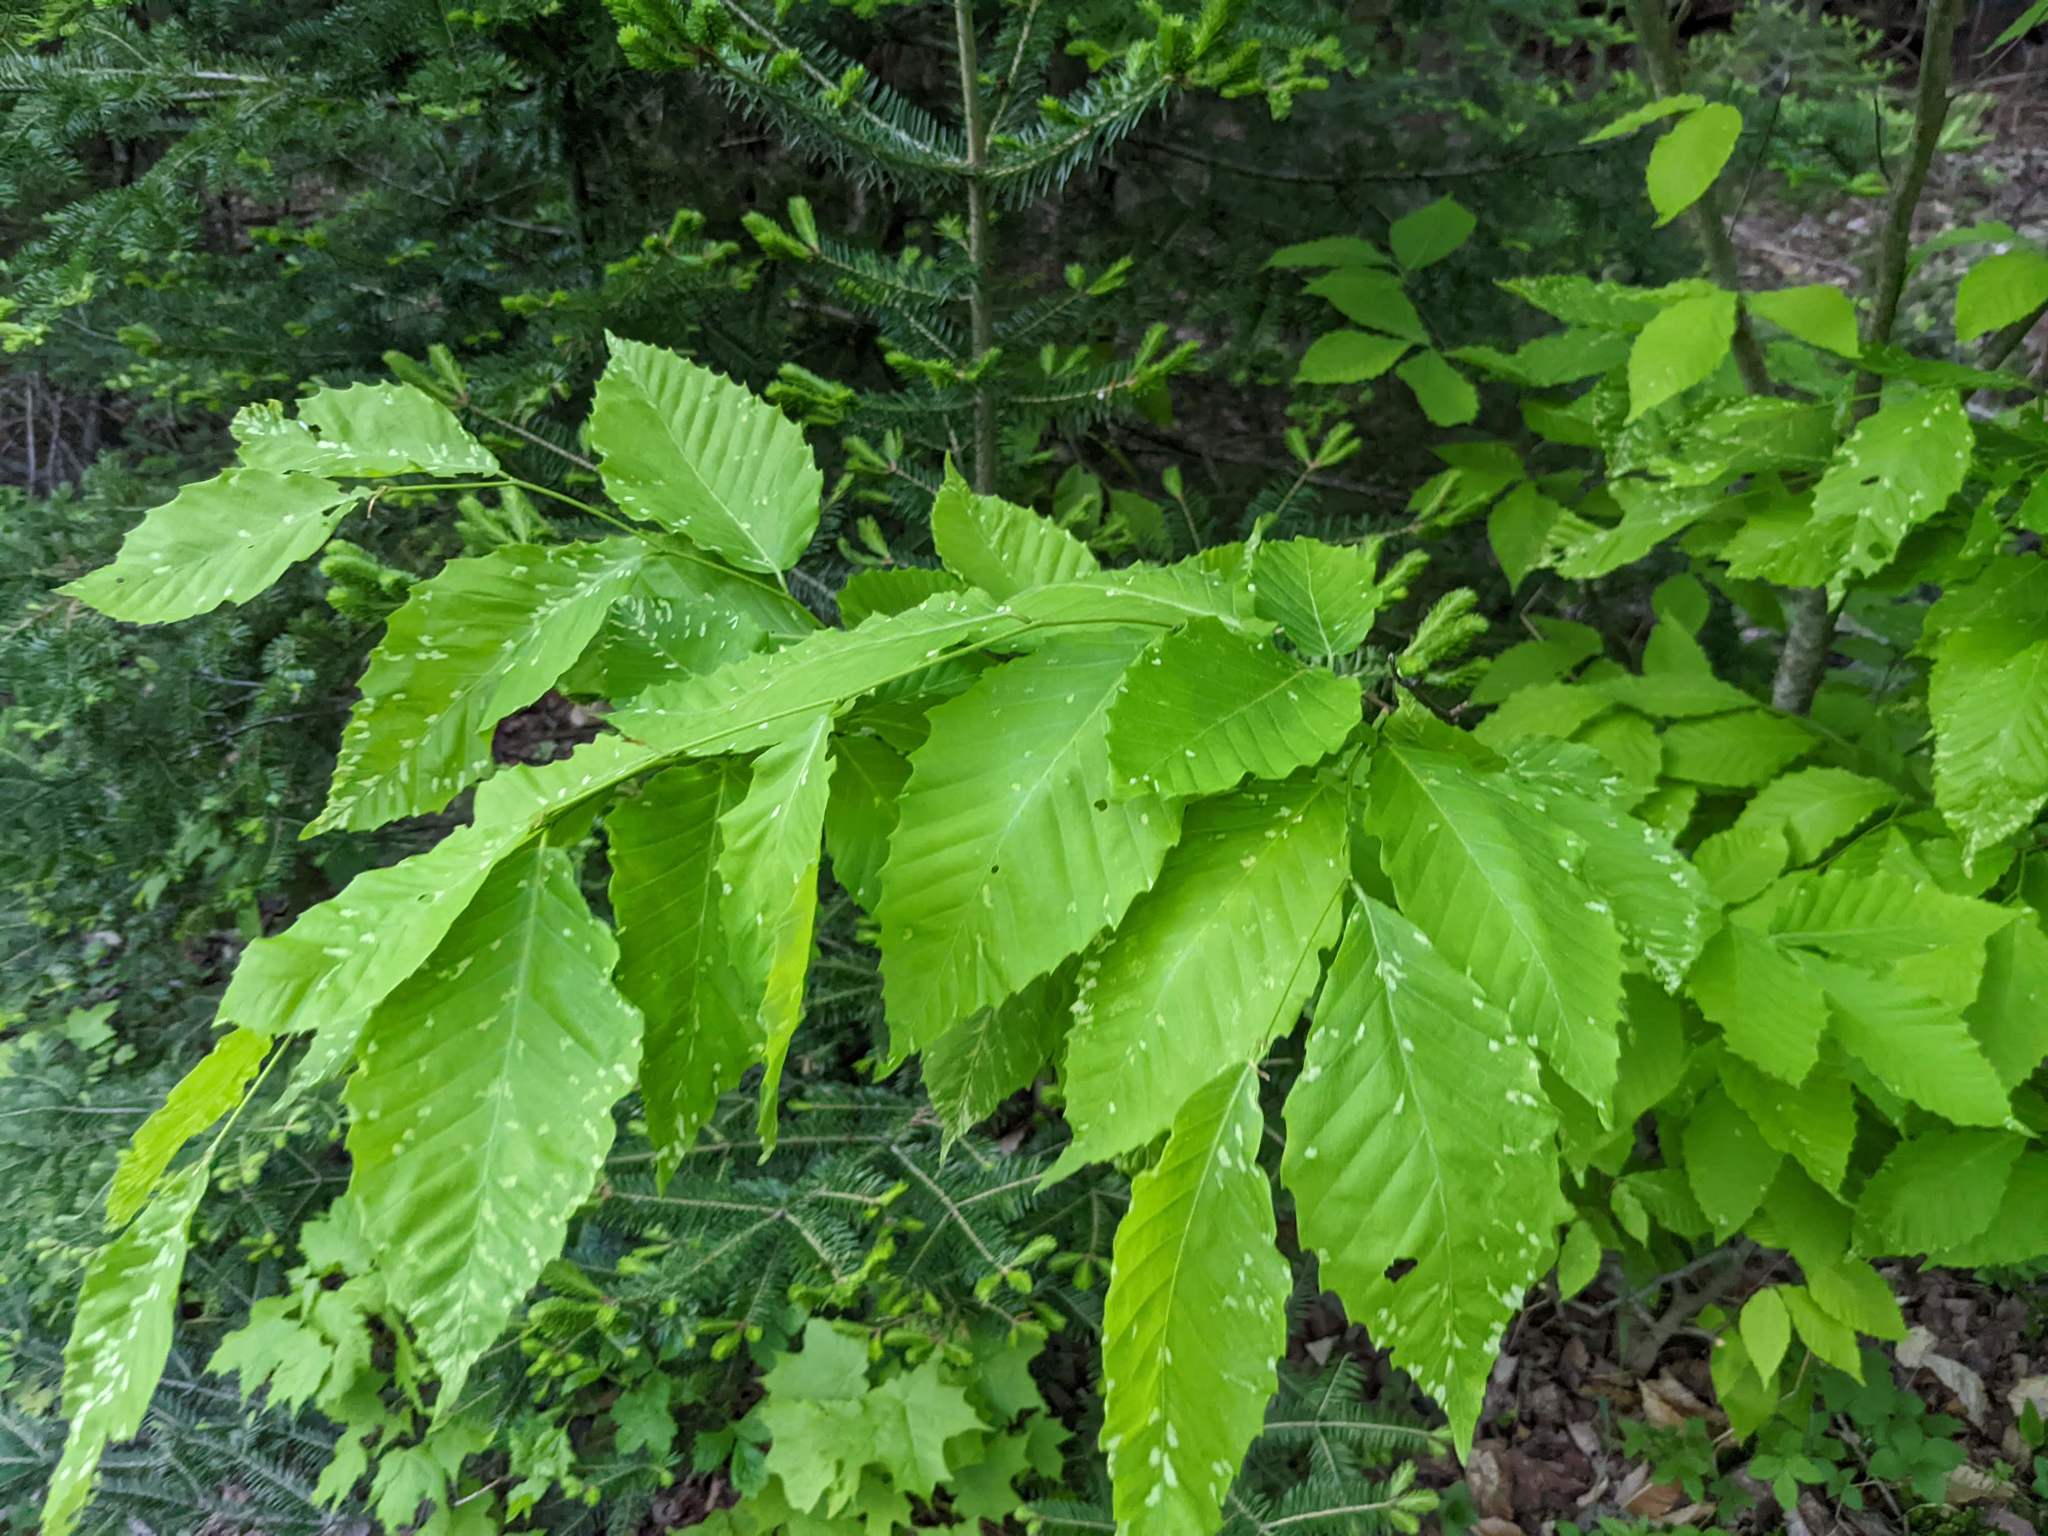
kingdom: Plantae
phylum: Tracheophyta
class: Magnoliopsida
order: Fagales
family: Fagaceae
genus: Fagus
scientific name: Fagus grandifolia
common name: American beech
